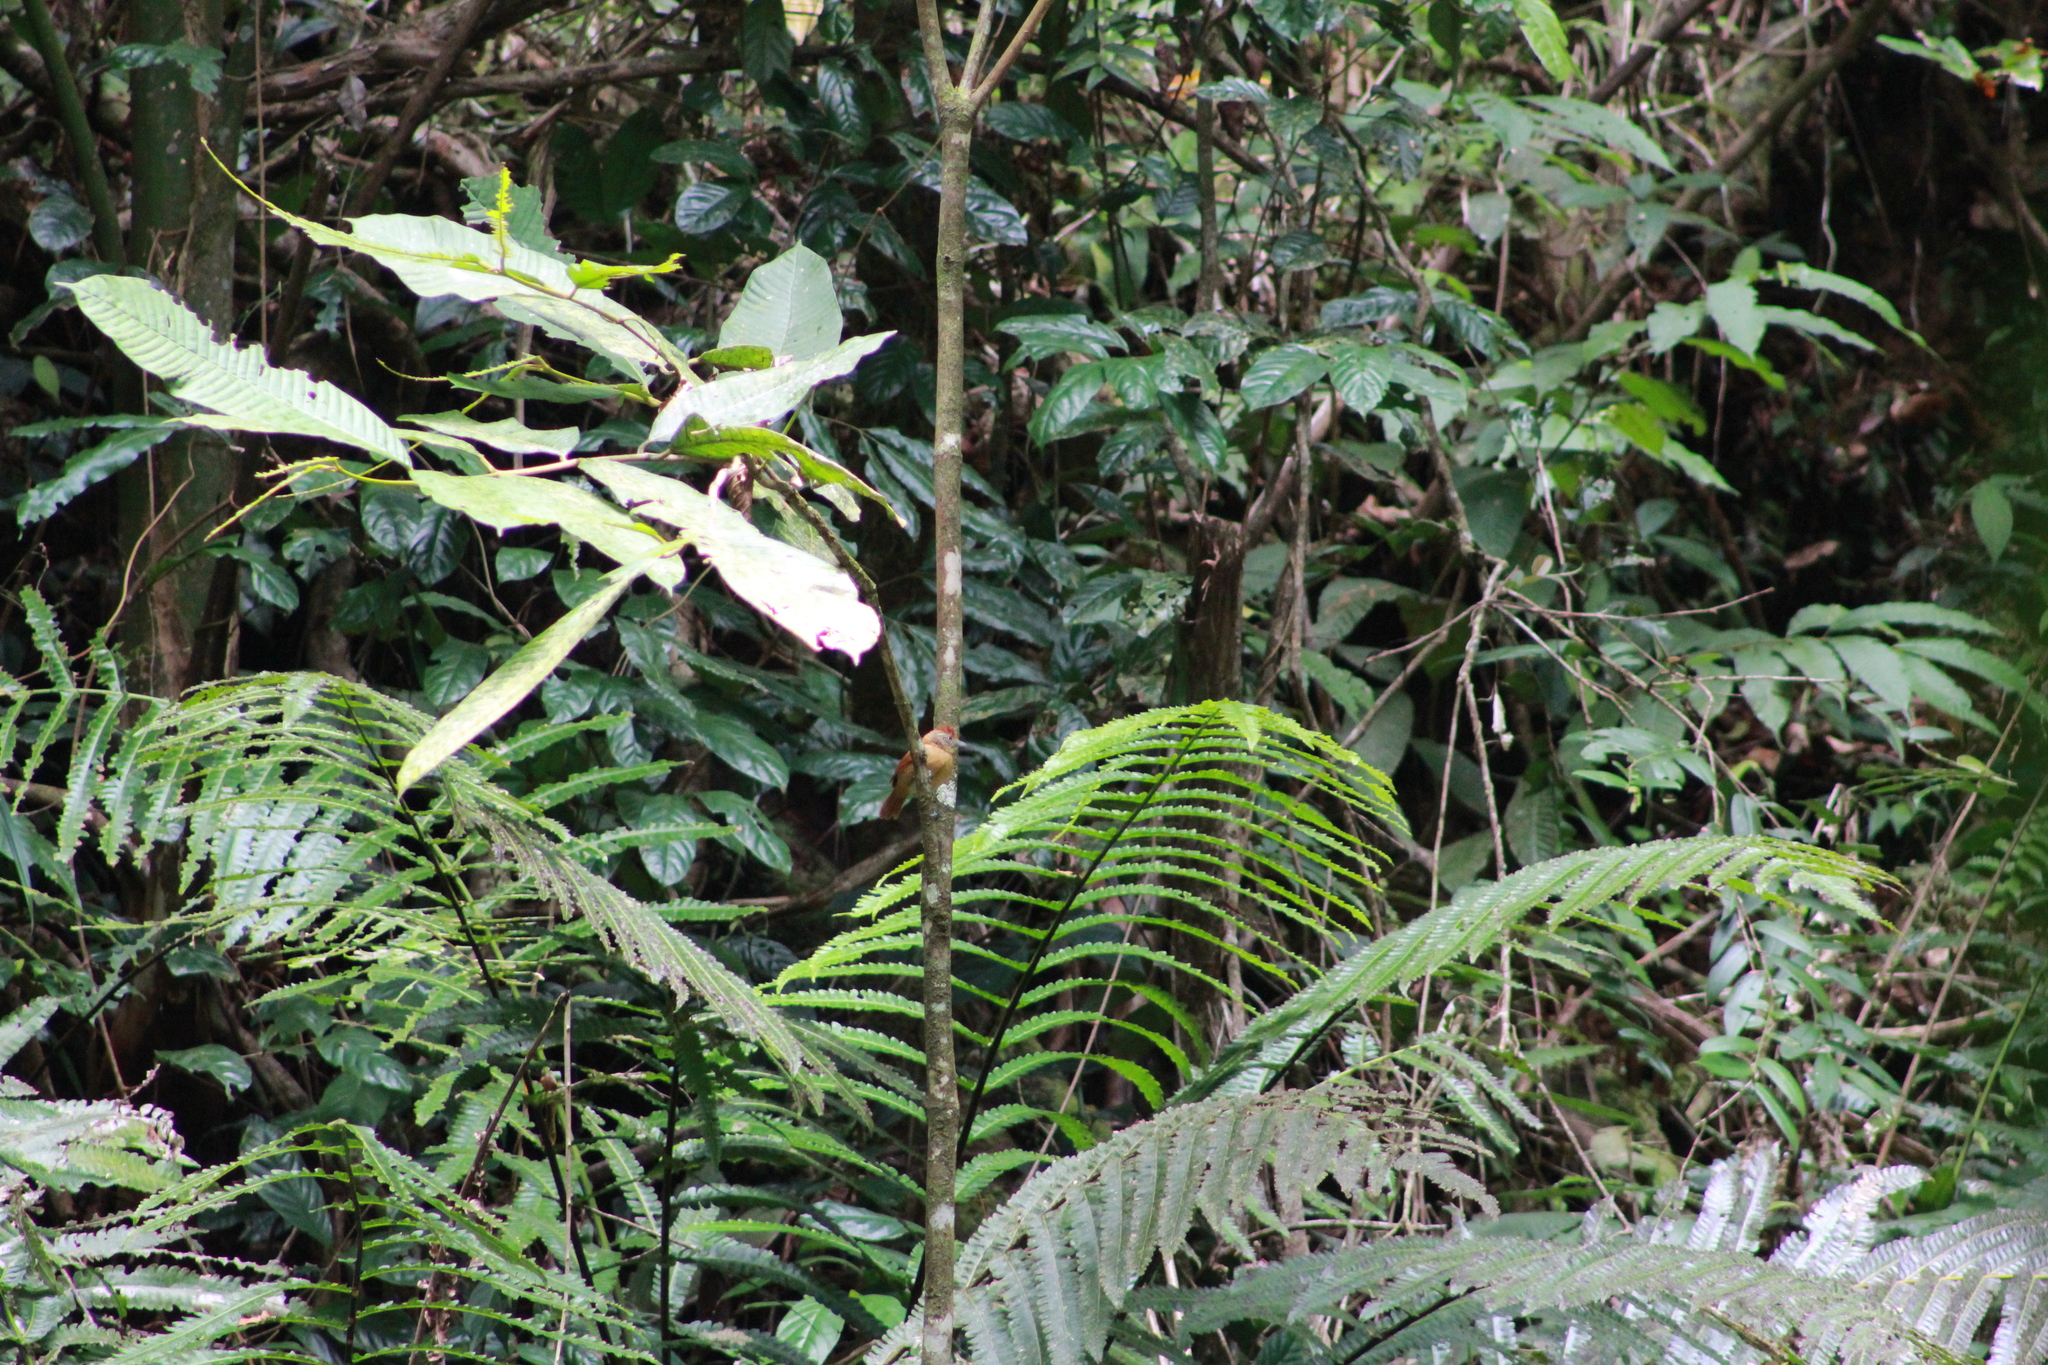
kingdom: Animalia
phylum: Chordata
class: Aves
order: Passeriformes
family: Thamnophilidae
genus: Thamnophilus
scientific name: Thamnophilus doliatus
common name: Barred antshrike
